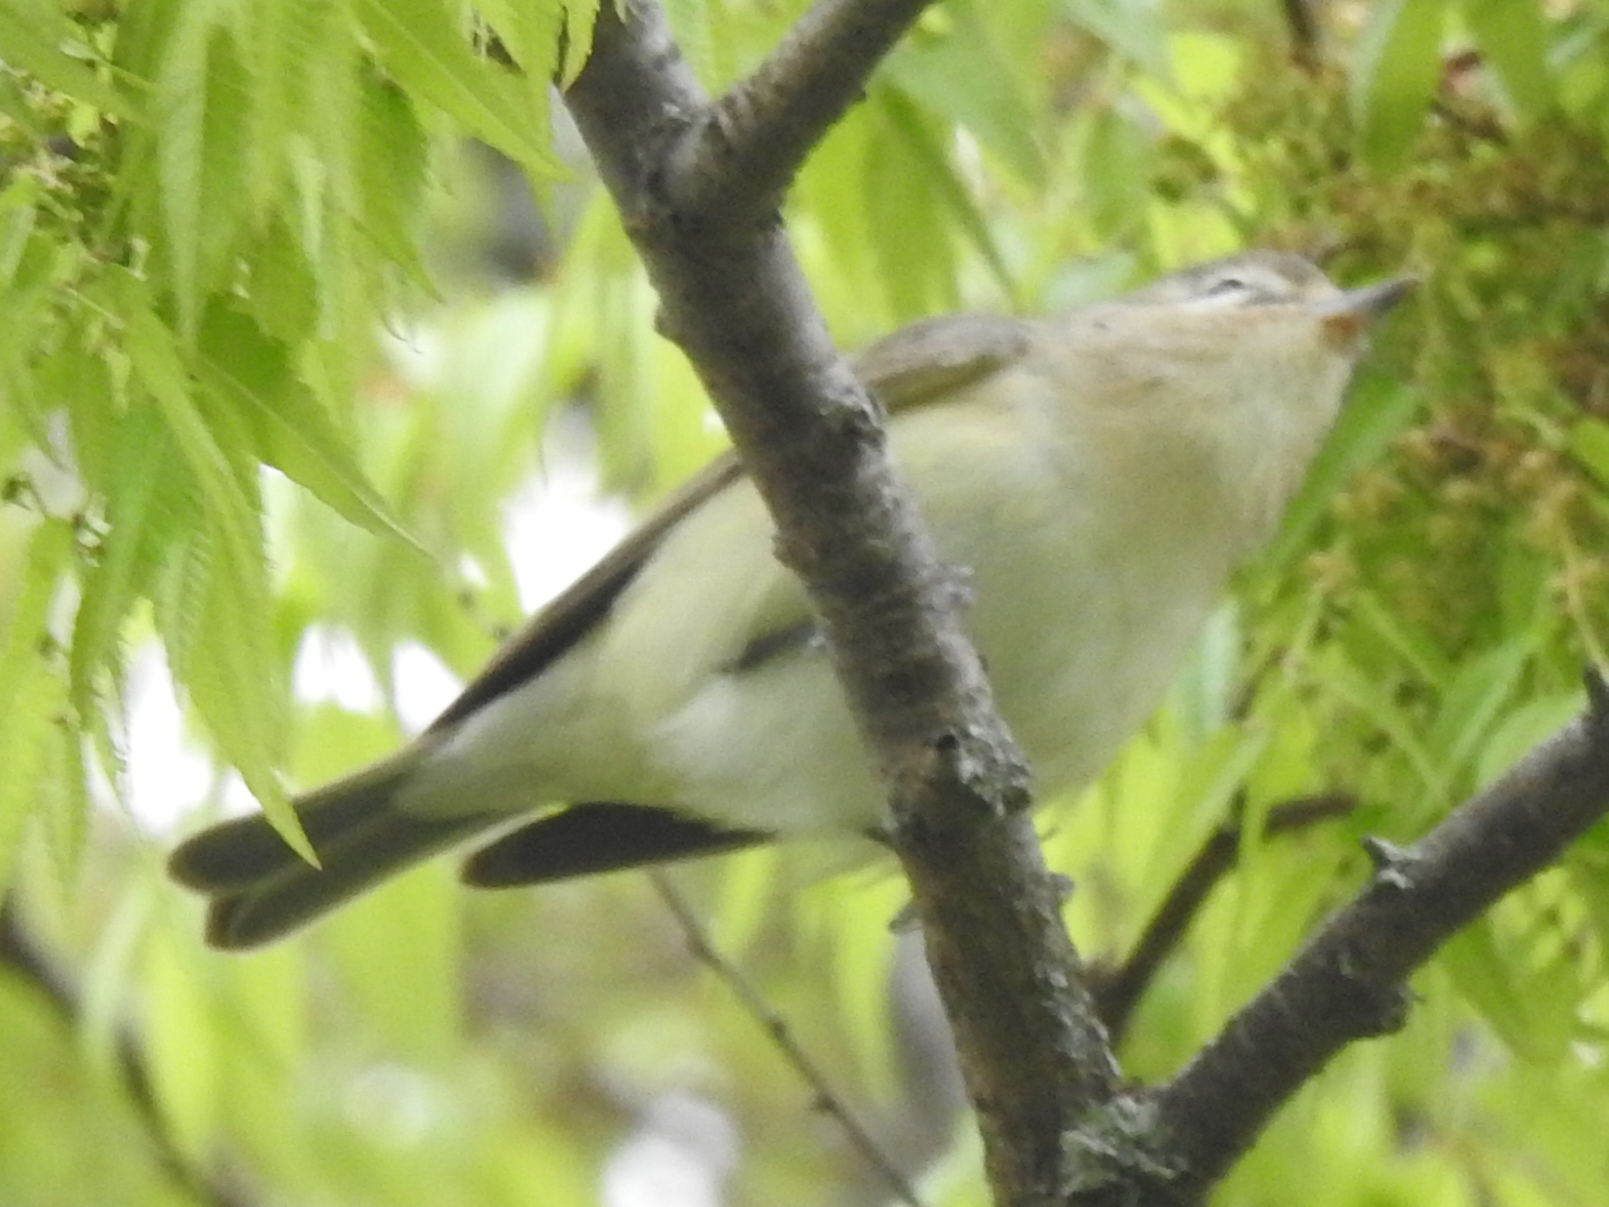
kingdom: Animalia
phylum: Chordata
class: Aves
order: Passeriformes
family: Vireonidae
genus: Vireo
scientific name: Vireo gilvus
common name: Warbling vireo
